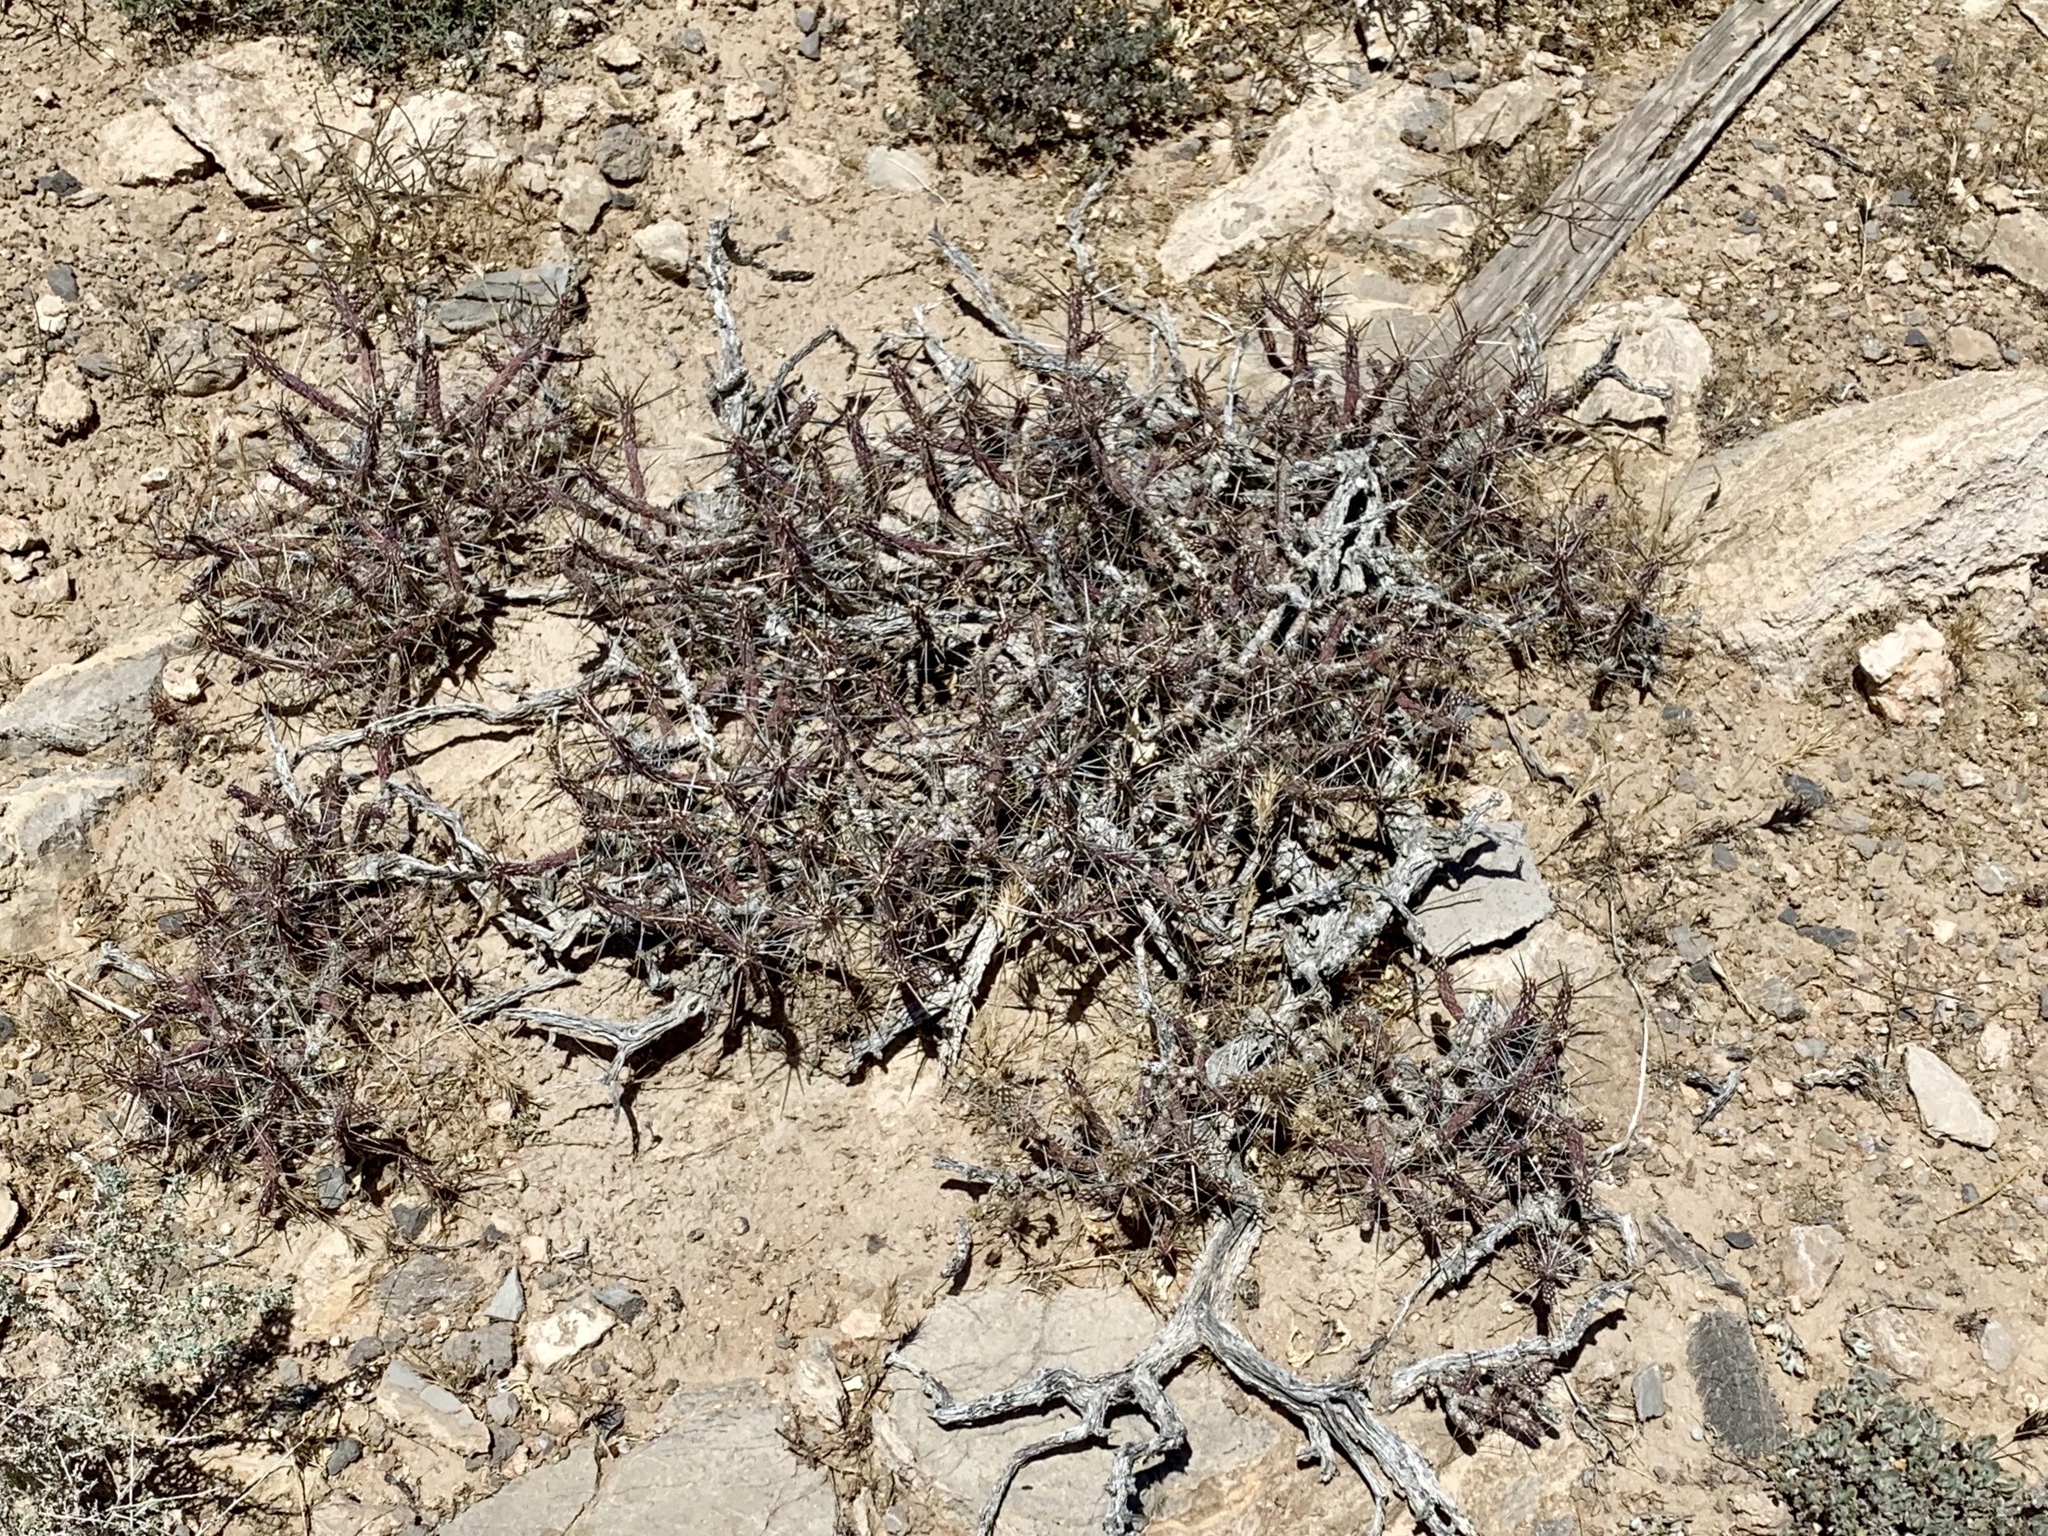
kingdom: Plantae
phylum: Tracheophyta
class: Magnoliopsida
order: Caryophyllales
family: Cactaceae
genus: Cylindropuntia
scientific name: Cylindropuntia ramosissima
